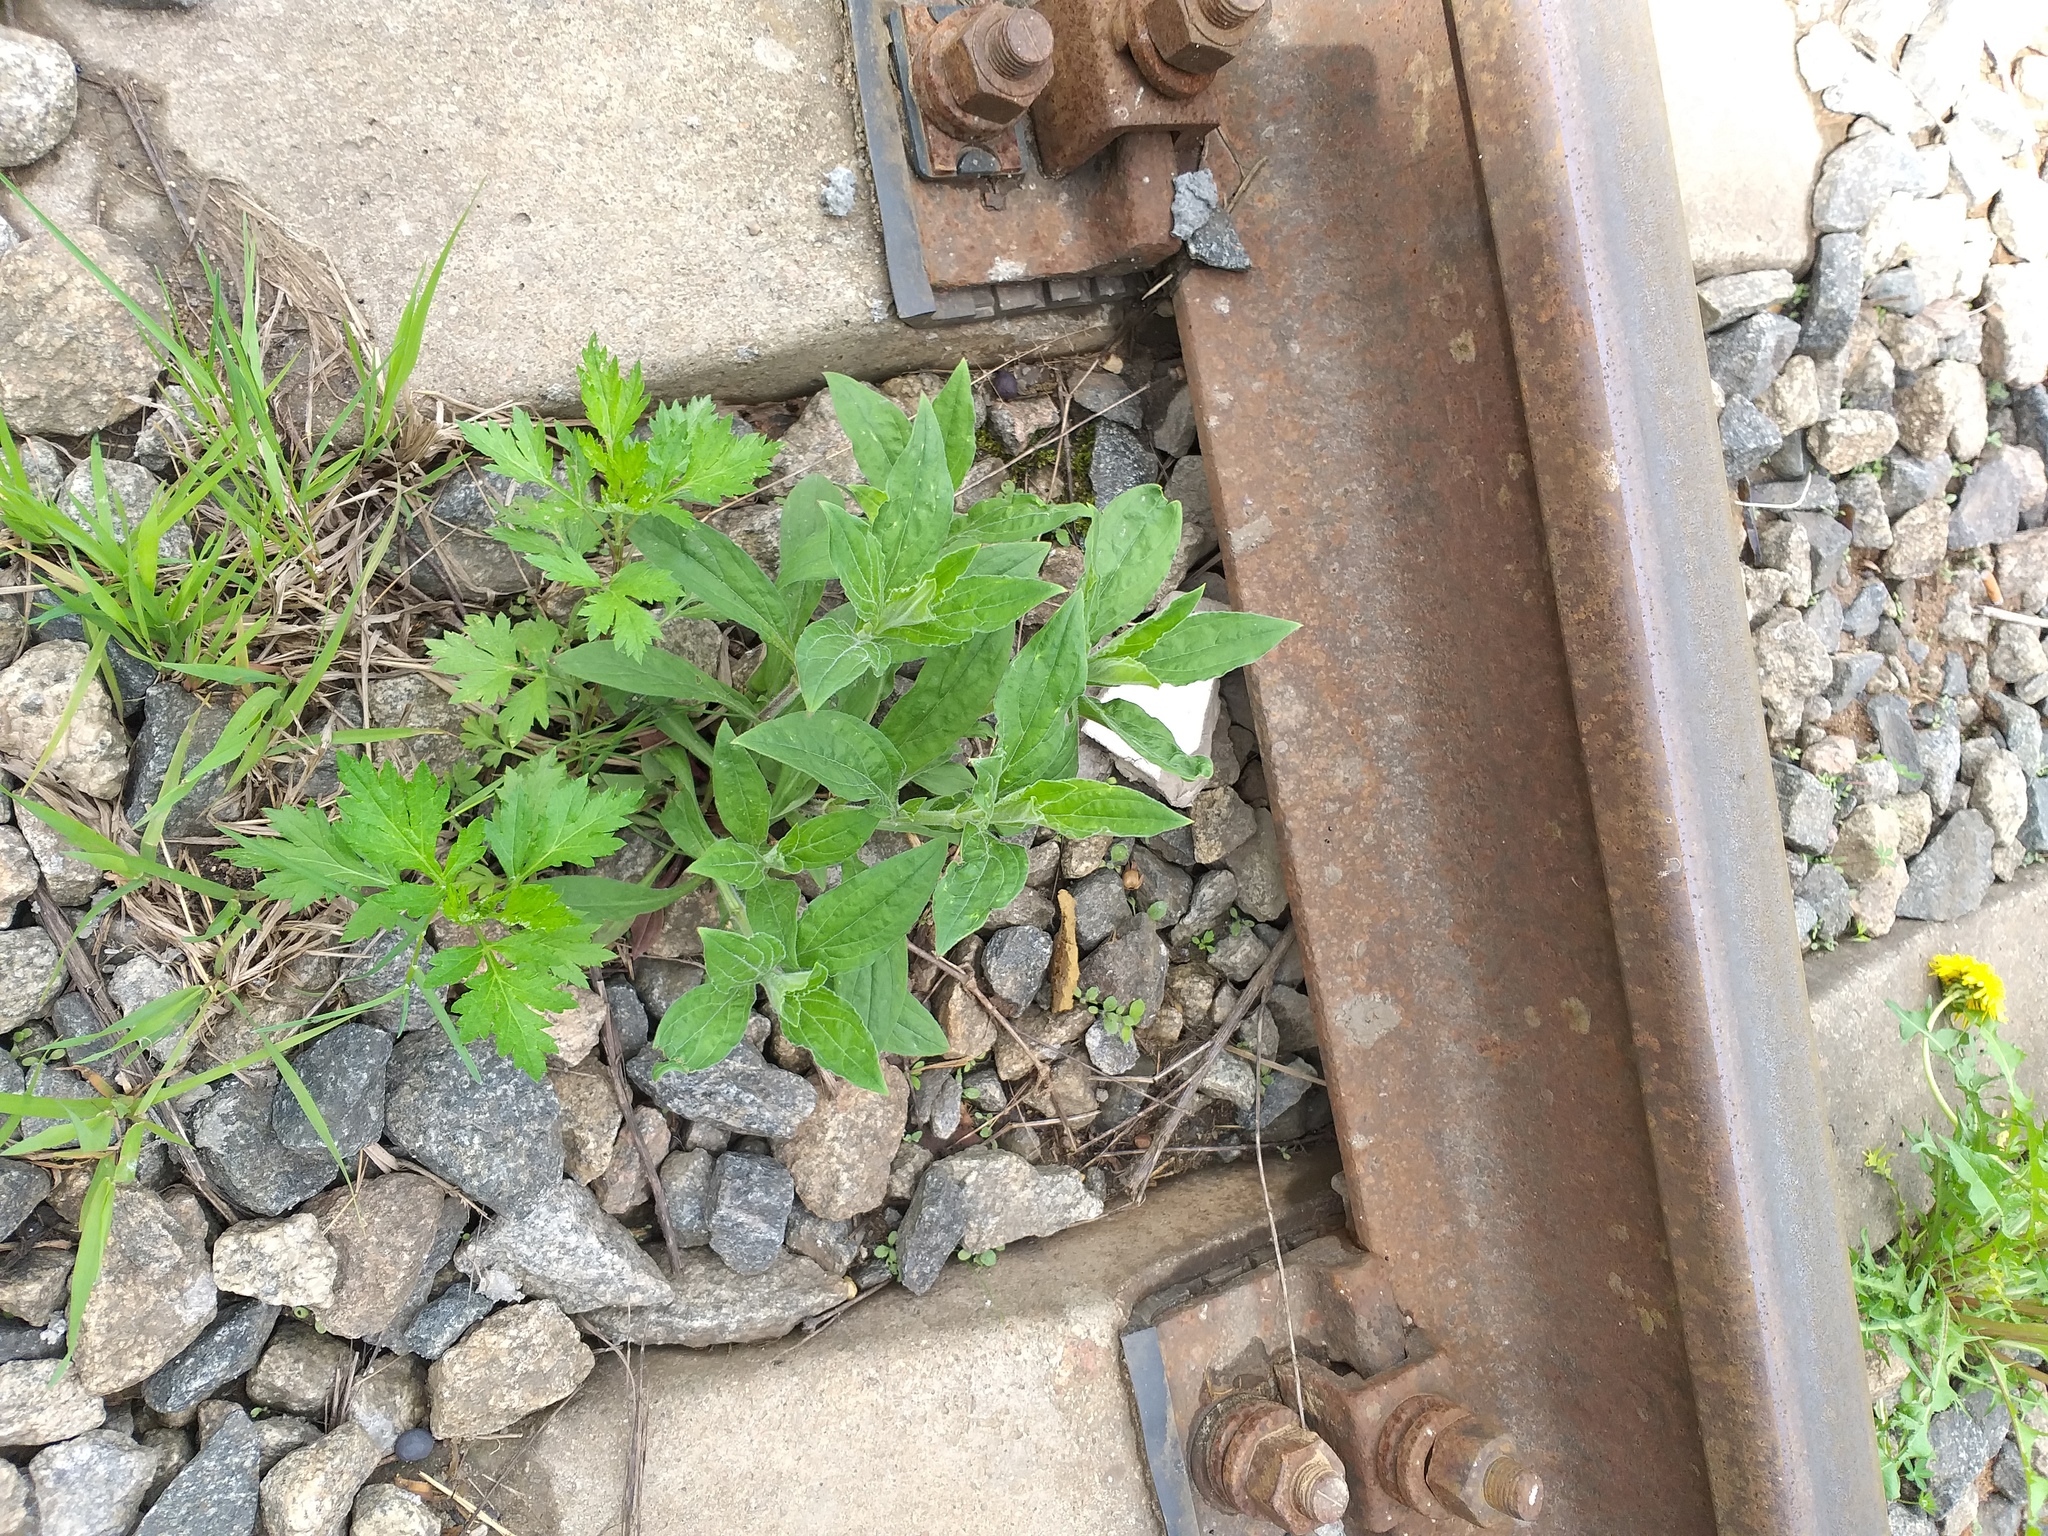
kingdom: Plantae
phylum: Tracheophyta
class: Magnoliopsida
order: Caryophyllales
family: Caryophyllaceae
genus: Silene
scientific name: Silene latifolia
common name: White campion
